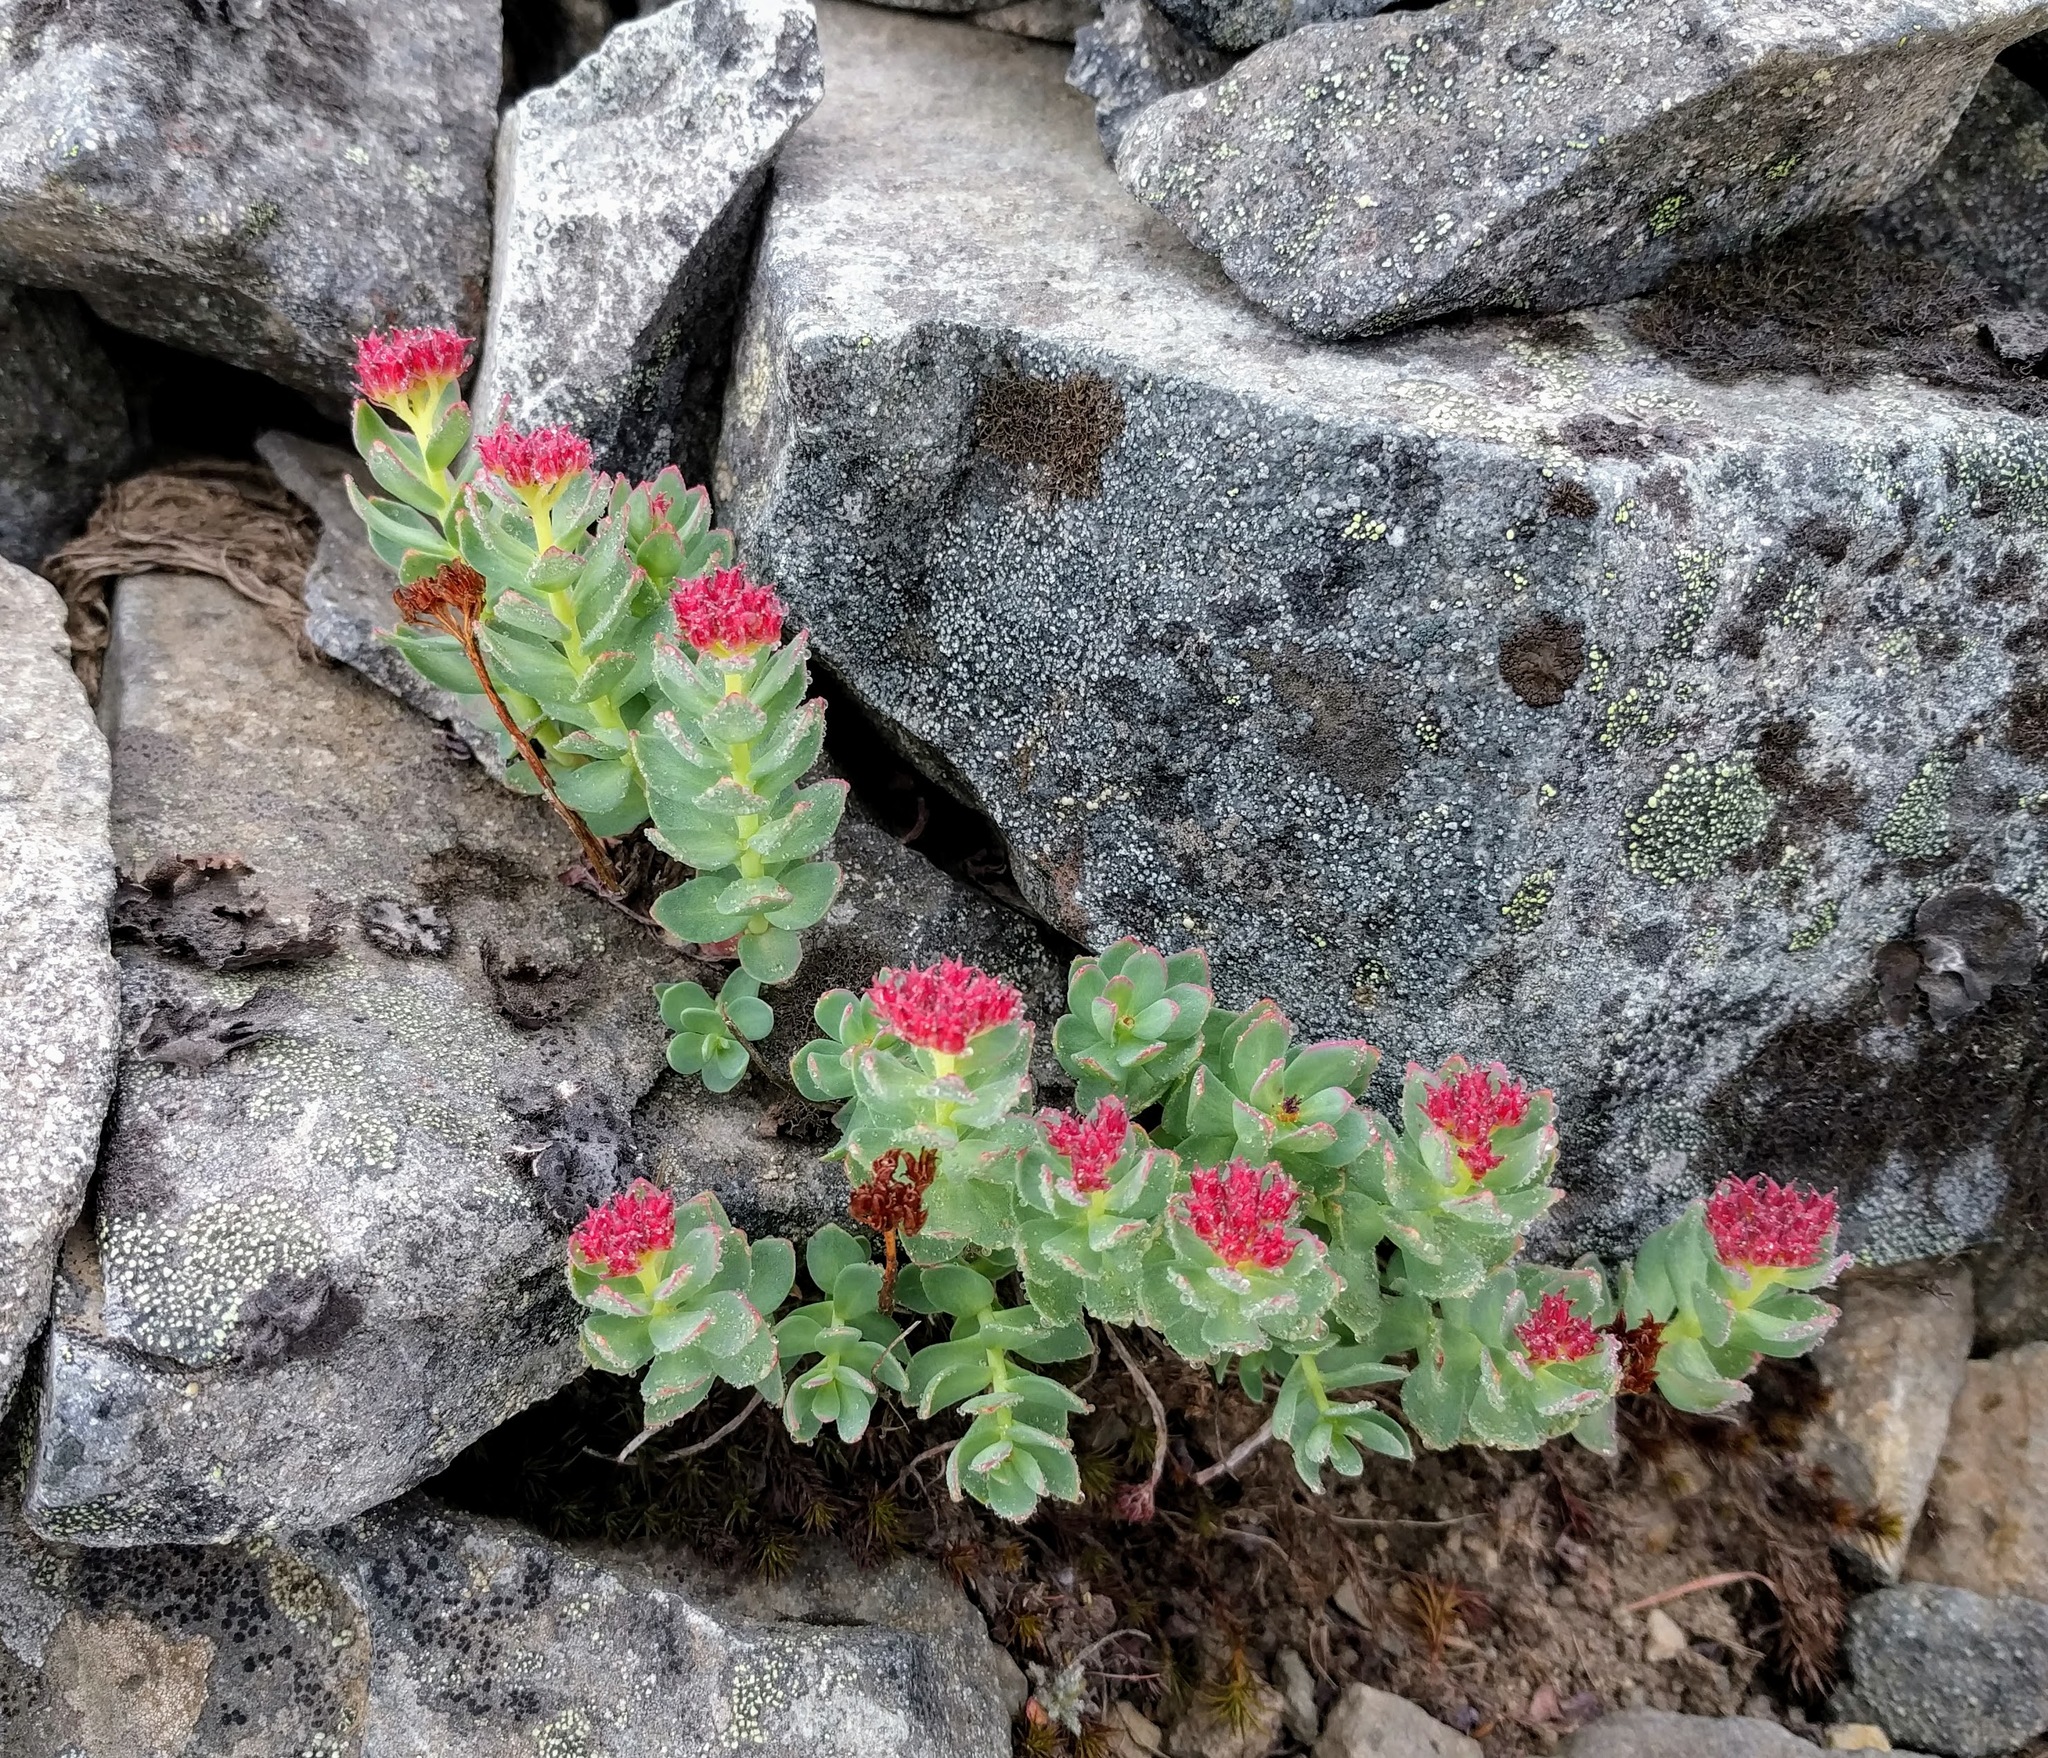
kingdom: Plantae
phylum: Tracheophyta
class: Magnoliopsida
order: Saxifragales
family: Crassulaceae
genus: Rhodiola
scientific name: Rhodiola integrifolia
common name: Western roseroot
